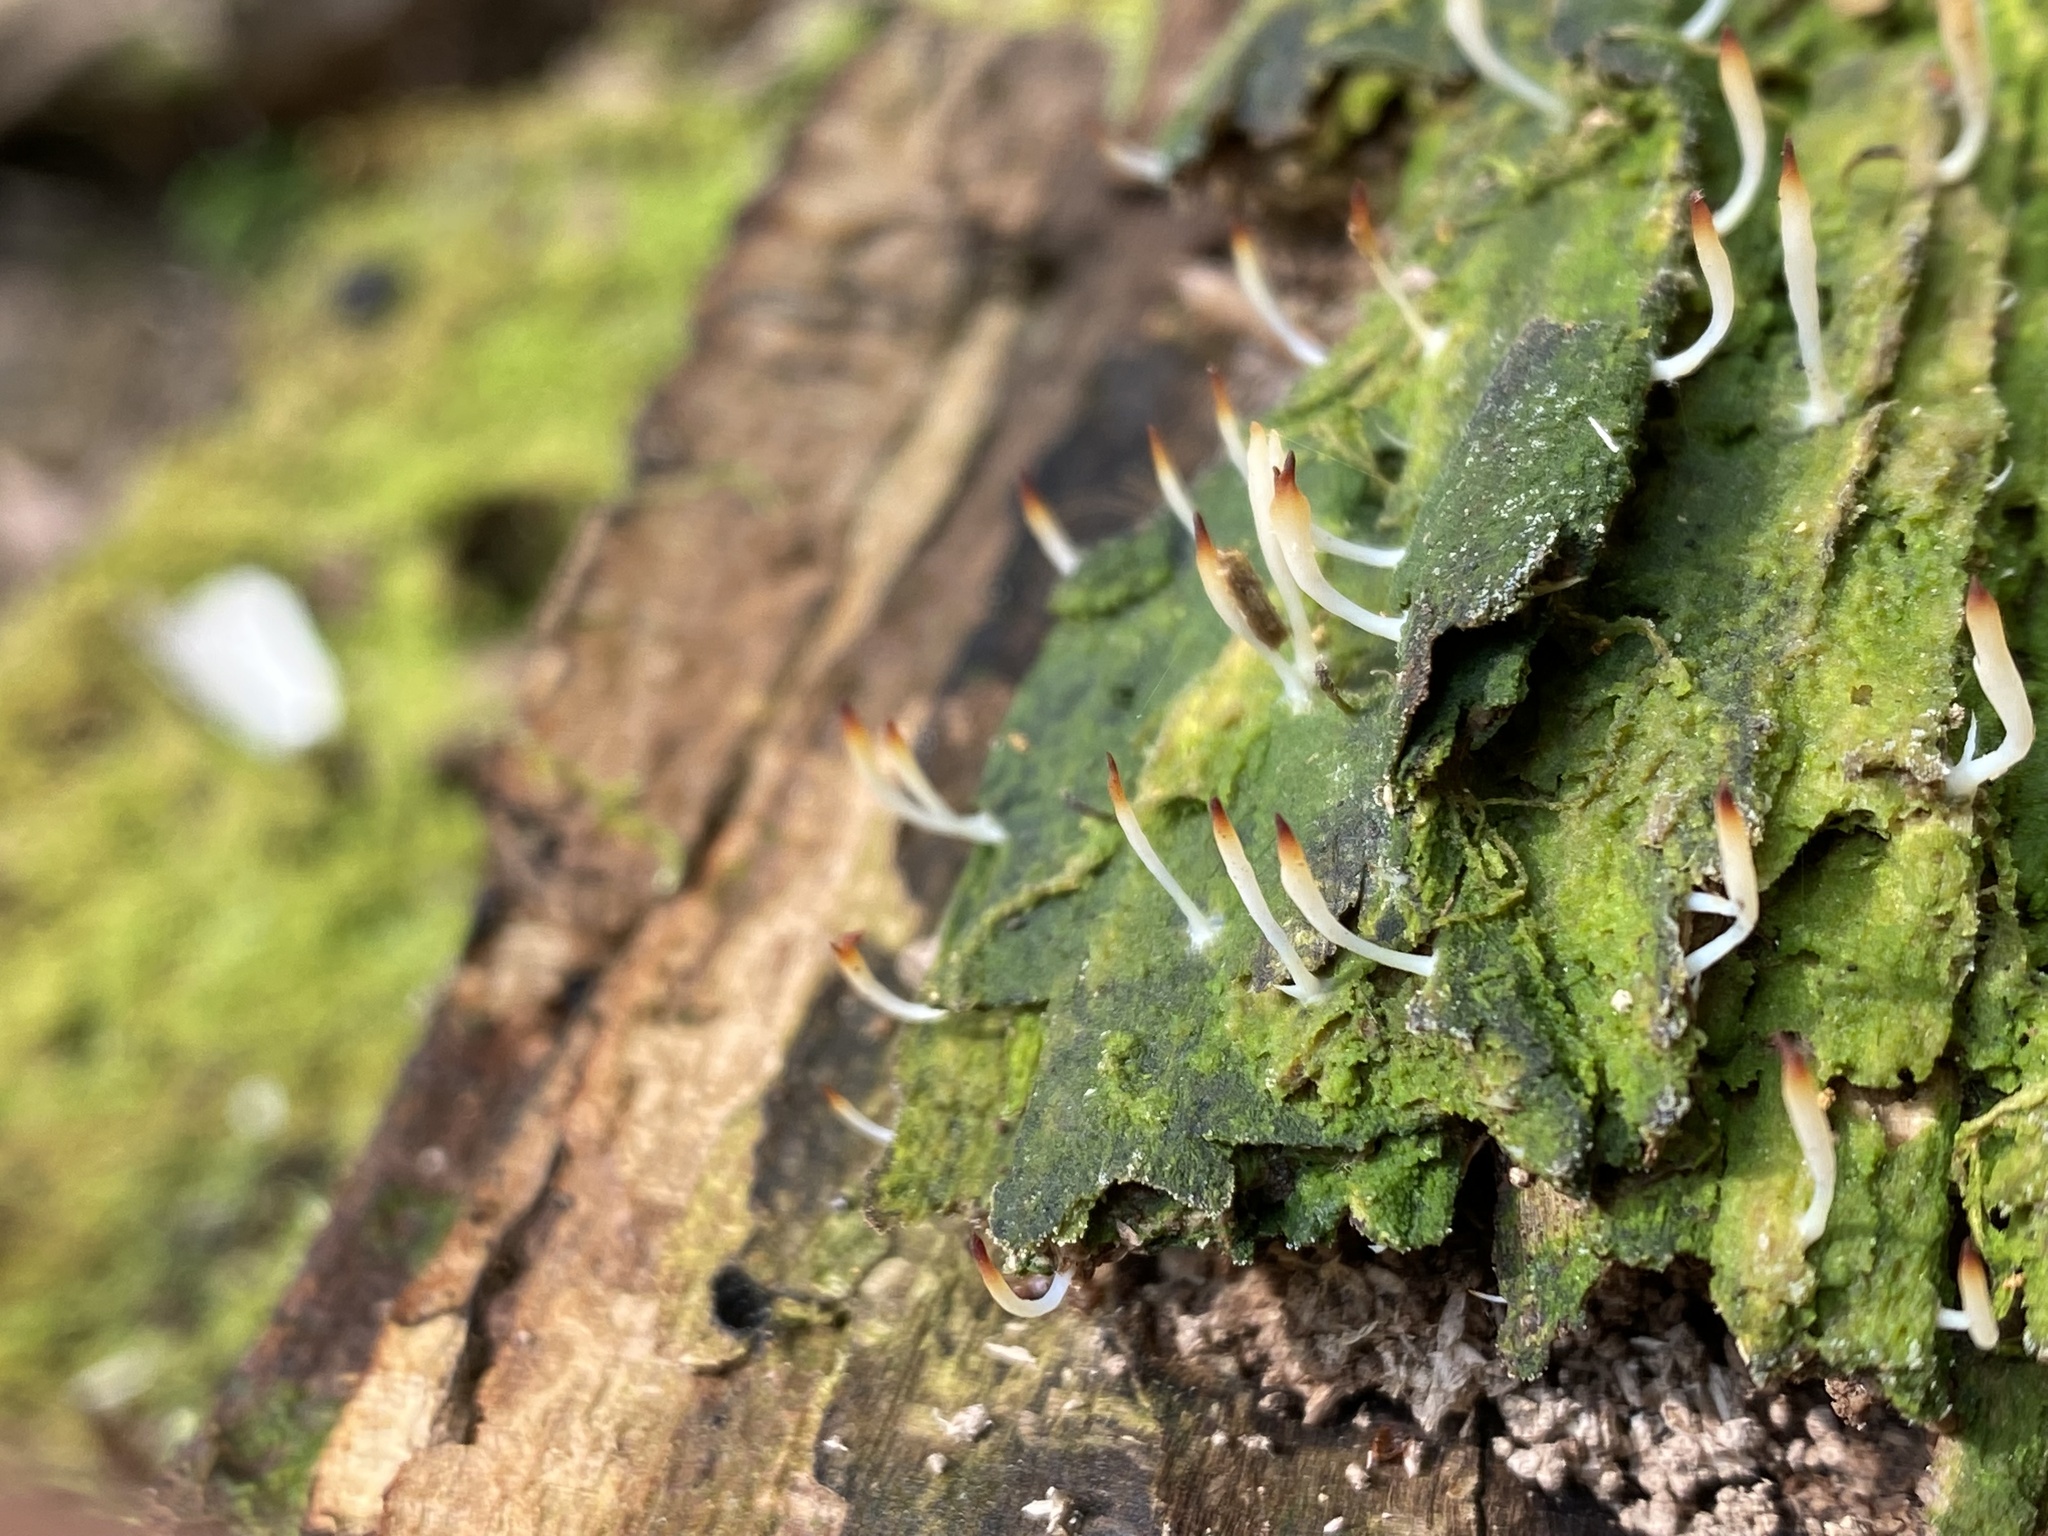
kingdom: Fungi
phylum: Basidiomycota
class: Agaricomycetes
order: Cantharellales
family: Hydnaceae
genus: Multiclavula
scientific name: Multiclavula mucida
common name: White green-algae coral
